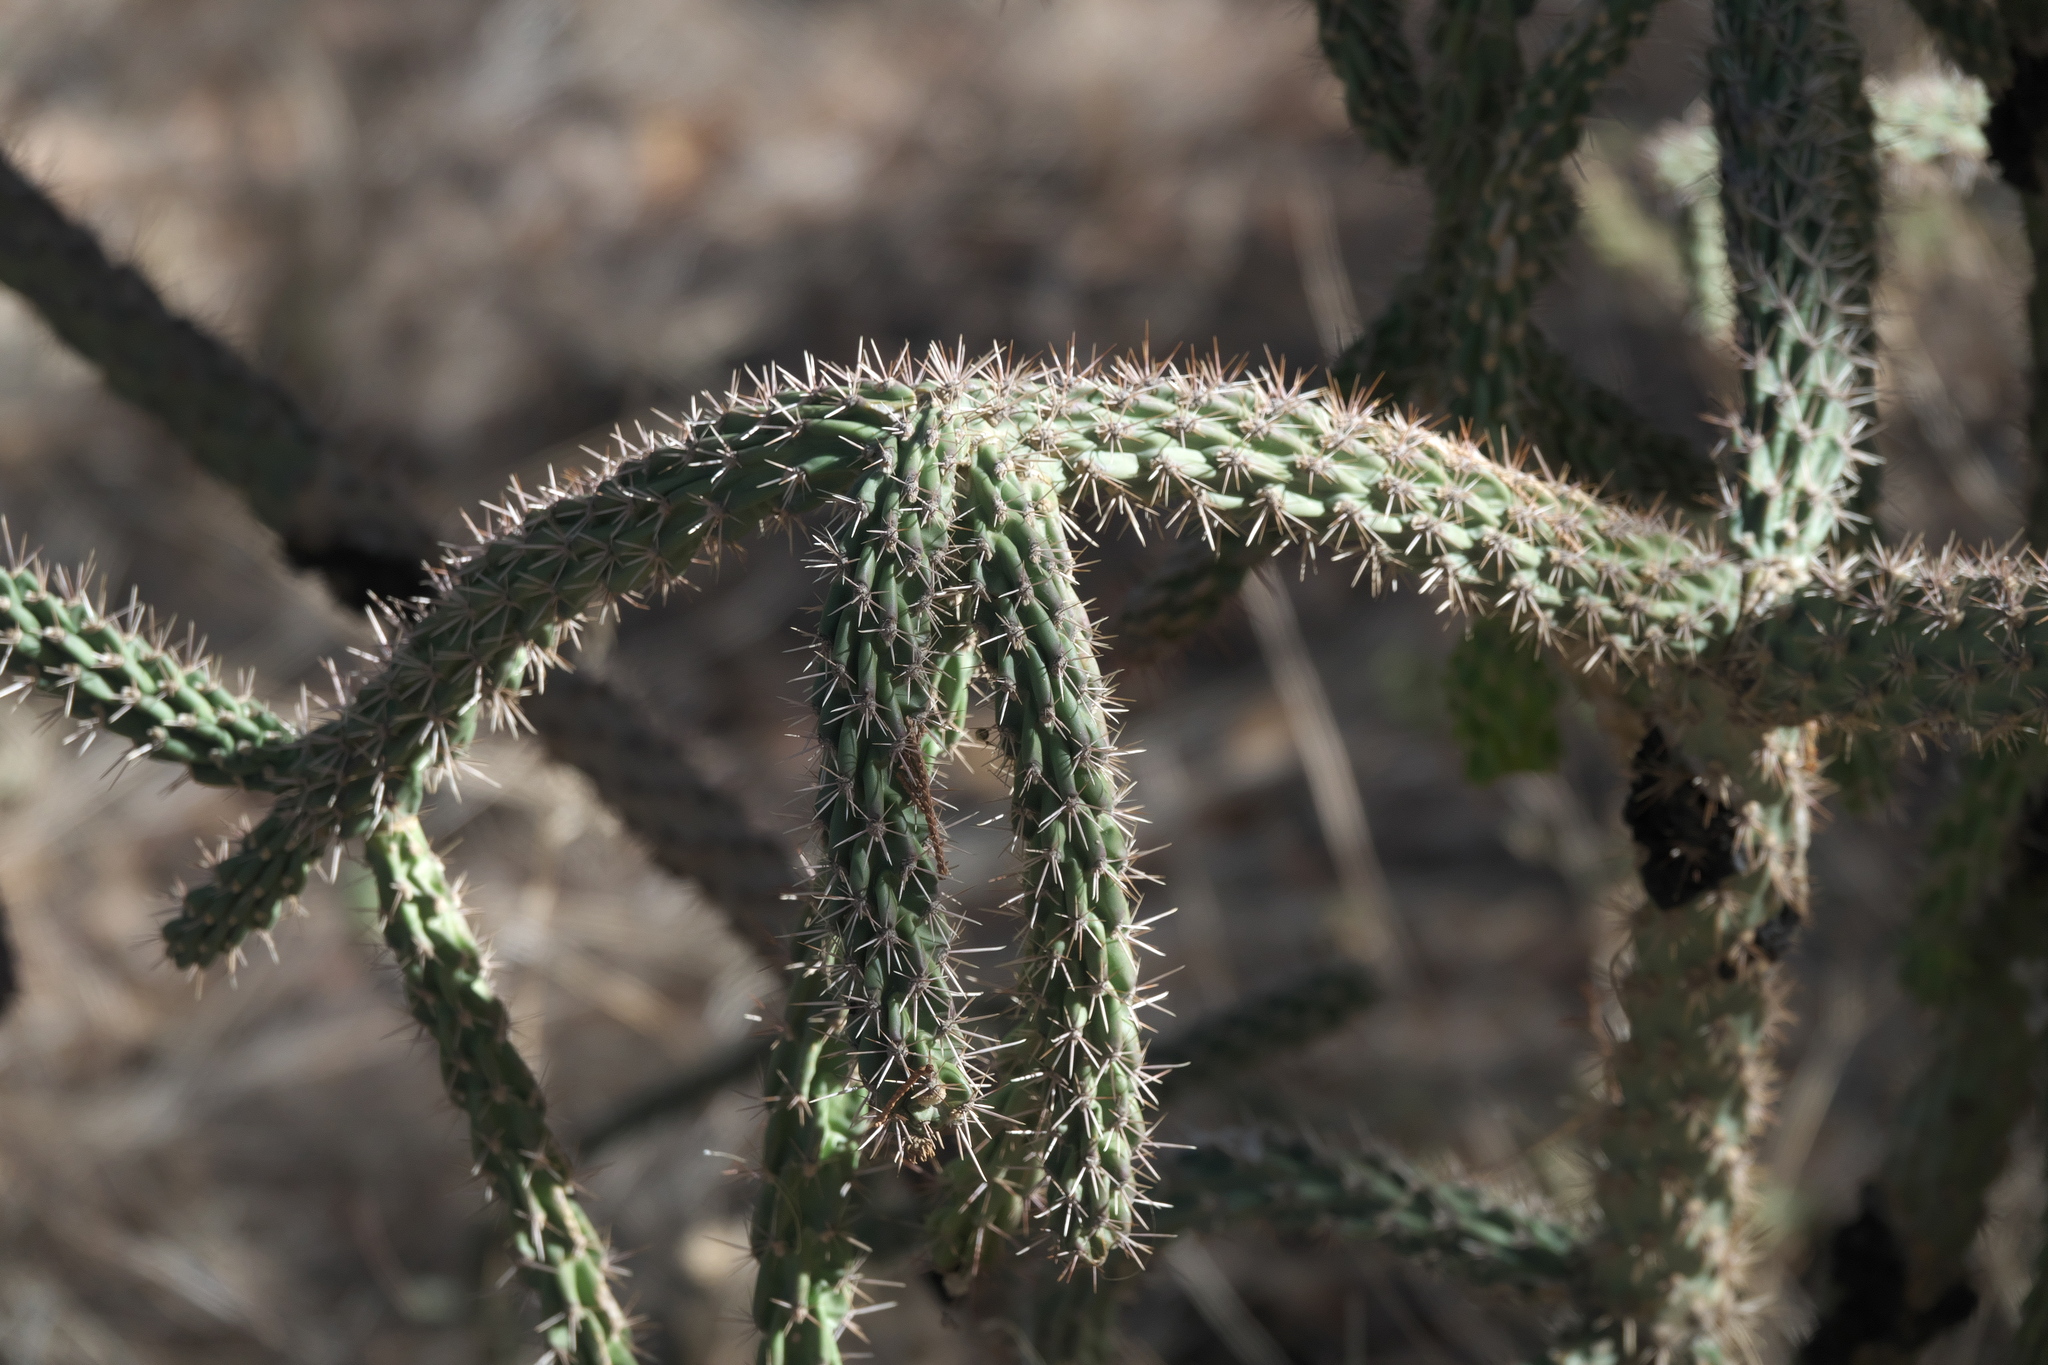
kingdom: Plantae
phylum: Tracheophyta
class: Magnoliopsida
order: Caryophyllales
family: Cactaceae
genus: Cylindropuntia
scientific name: Cylindropuntia imbricata
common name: Candelabrum cactus
